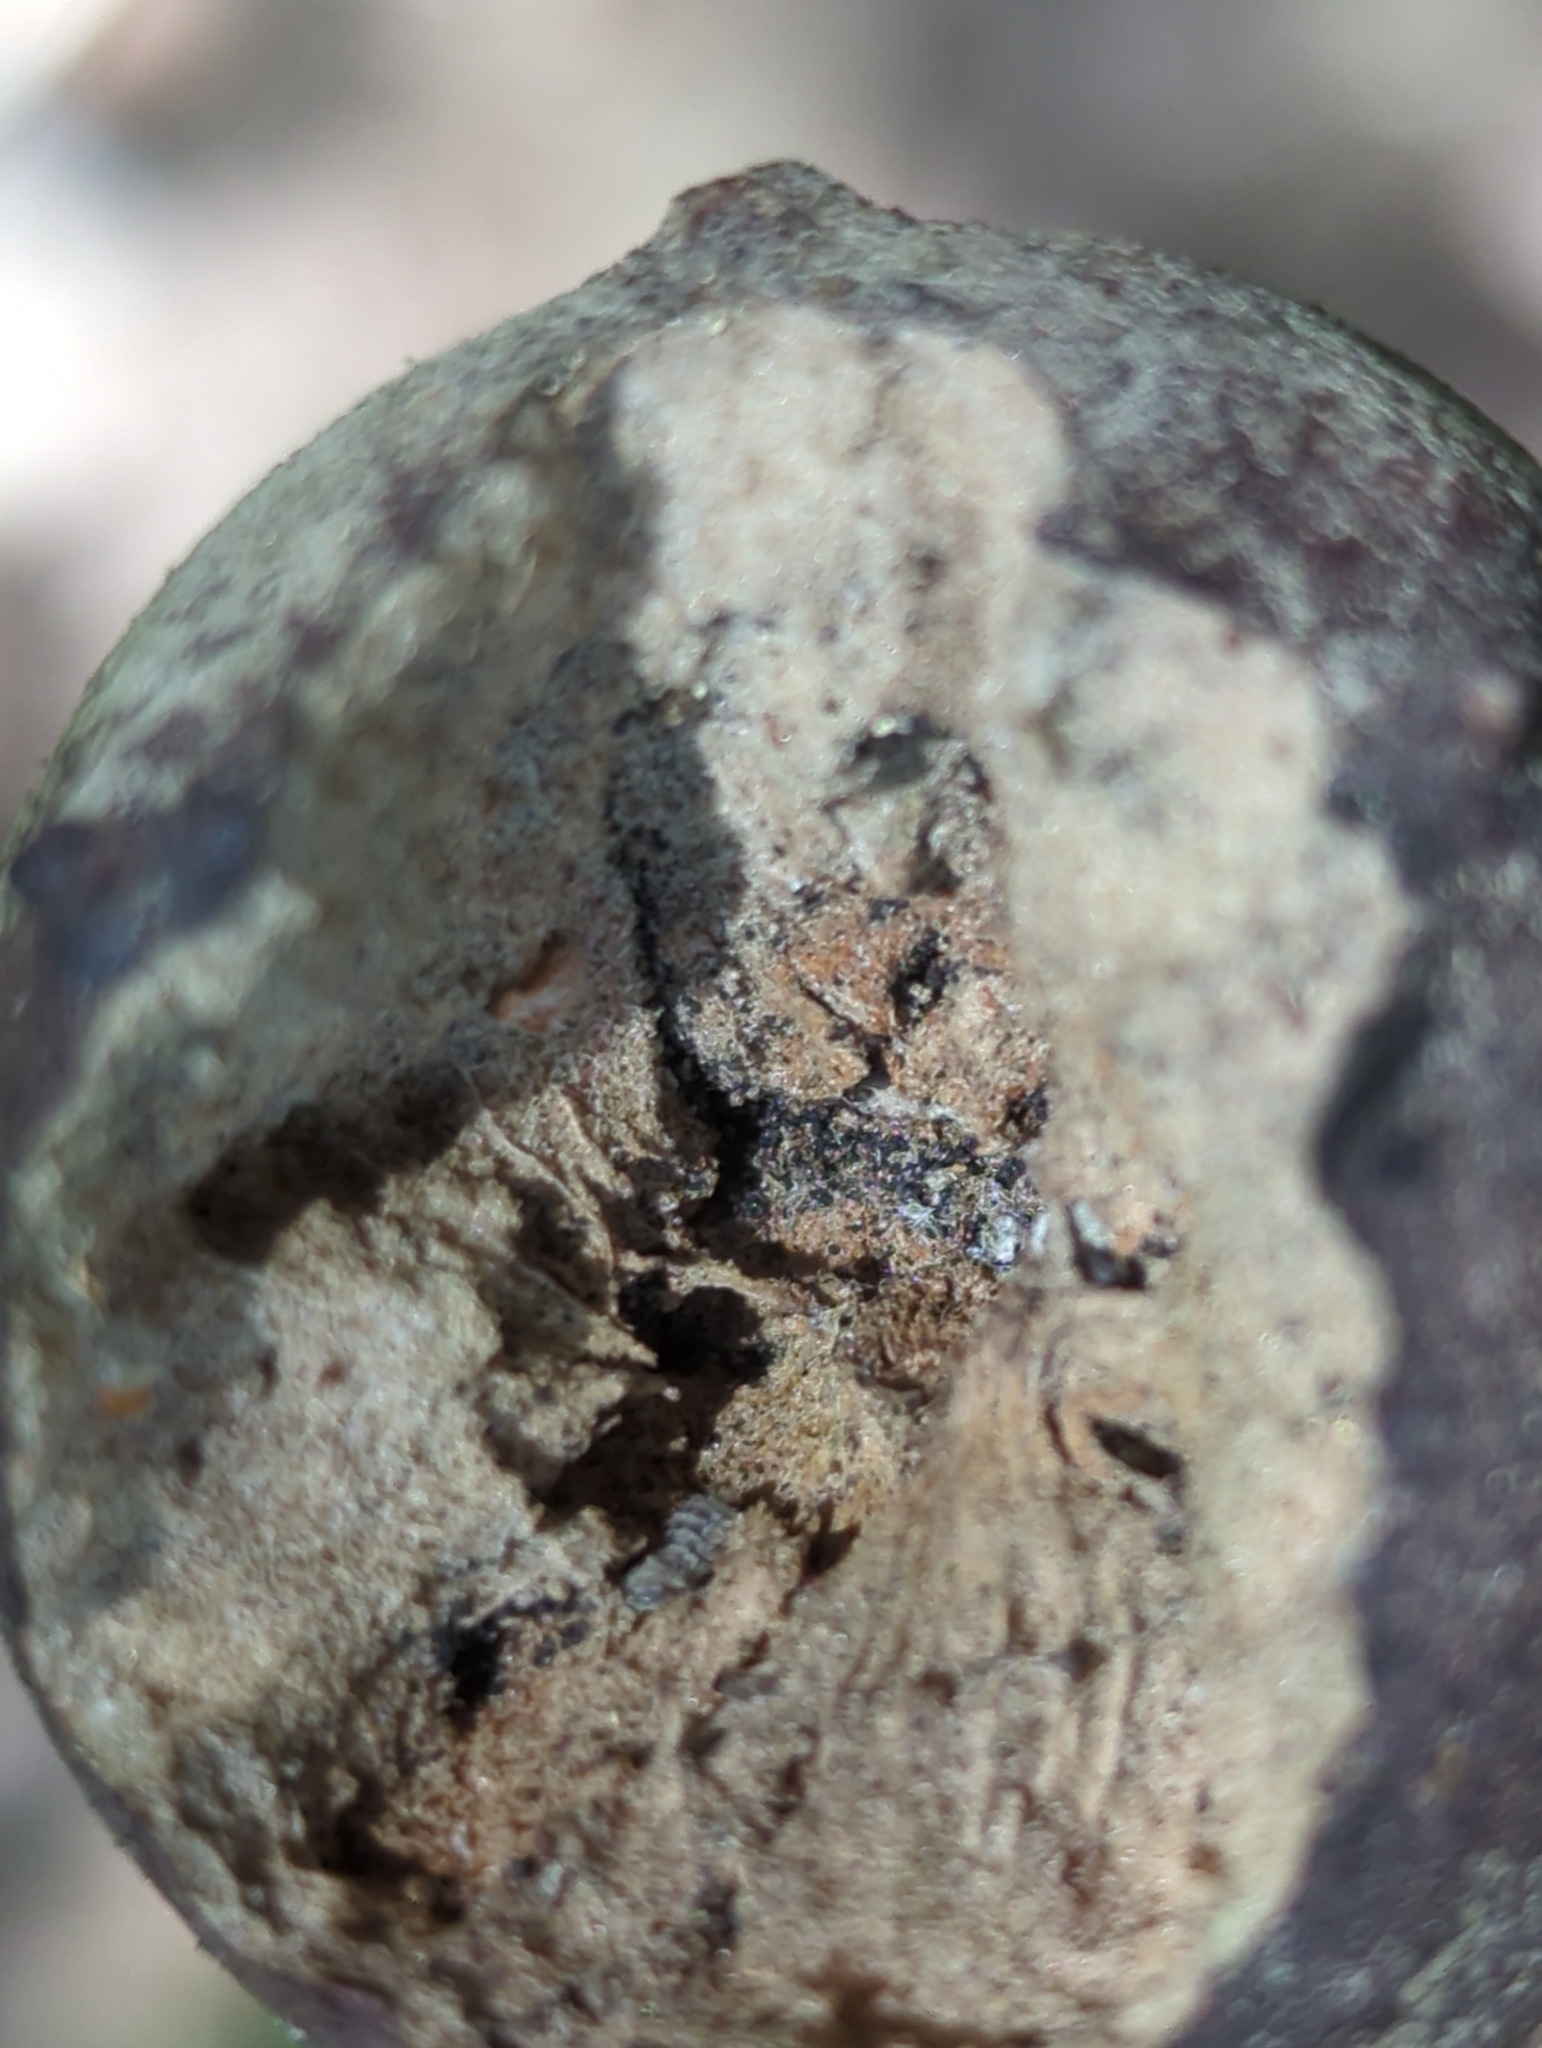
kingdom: Animalia
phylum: Arthropoda
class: Insecta
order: Hymenoptera
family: Cynipidae
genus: Andricus
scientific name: Andricus quercustozae
